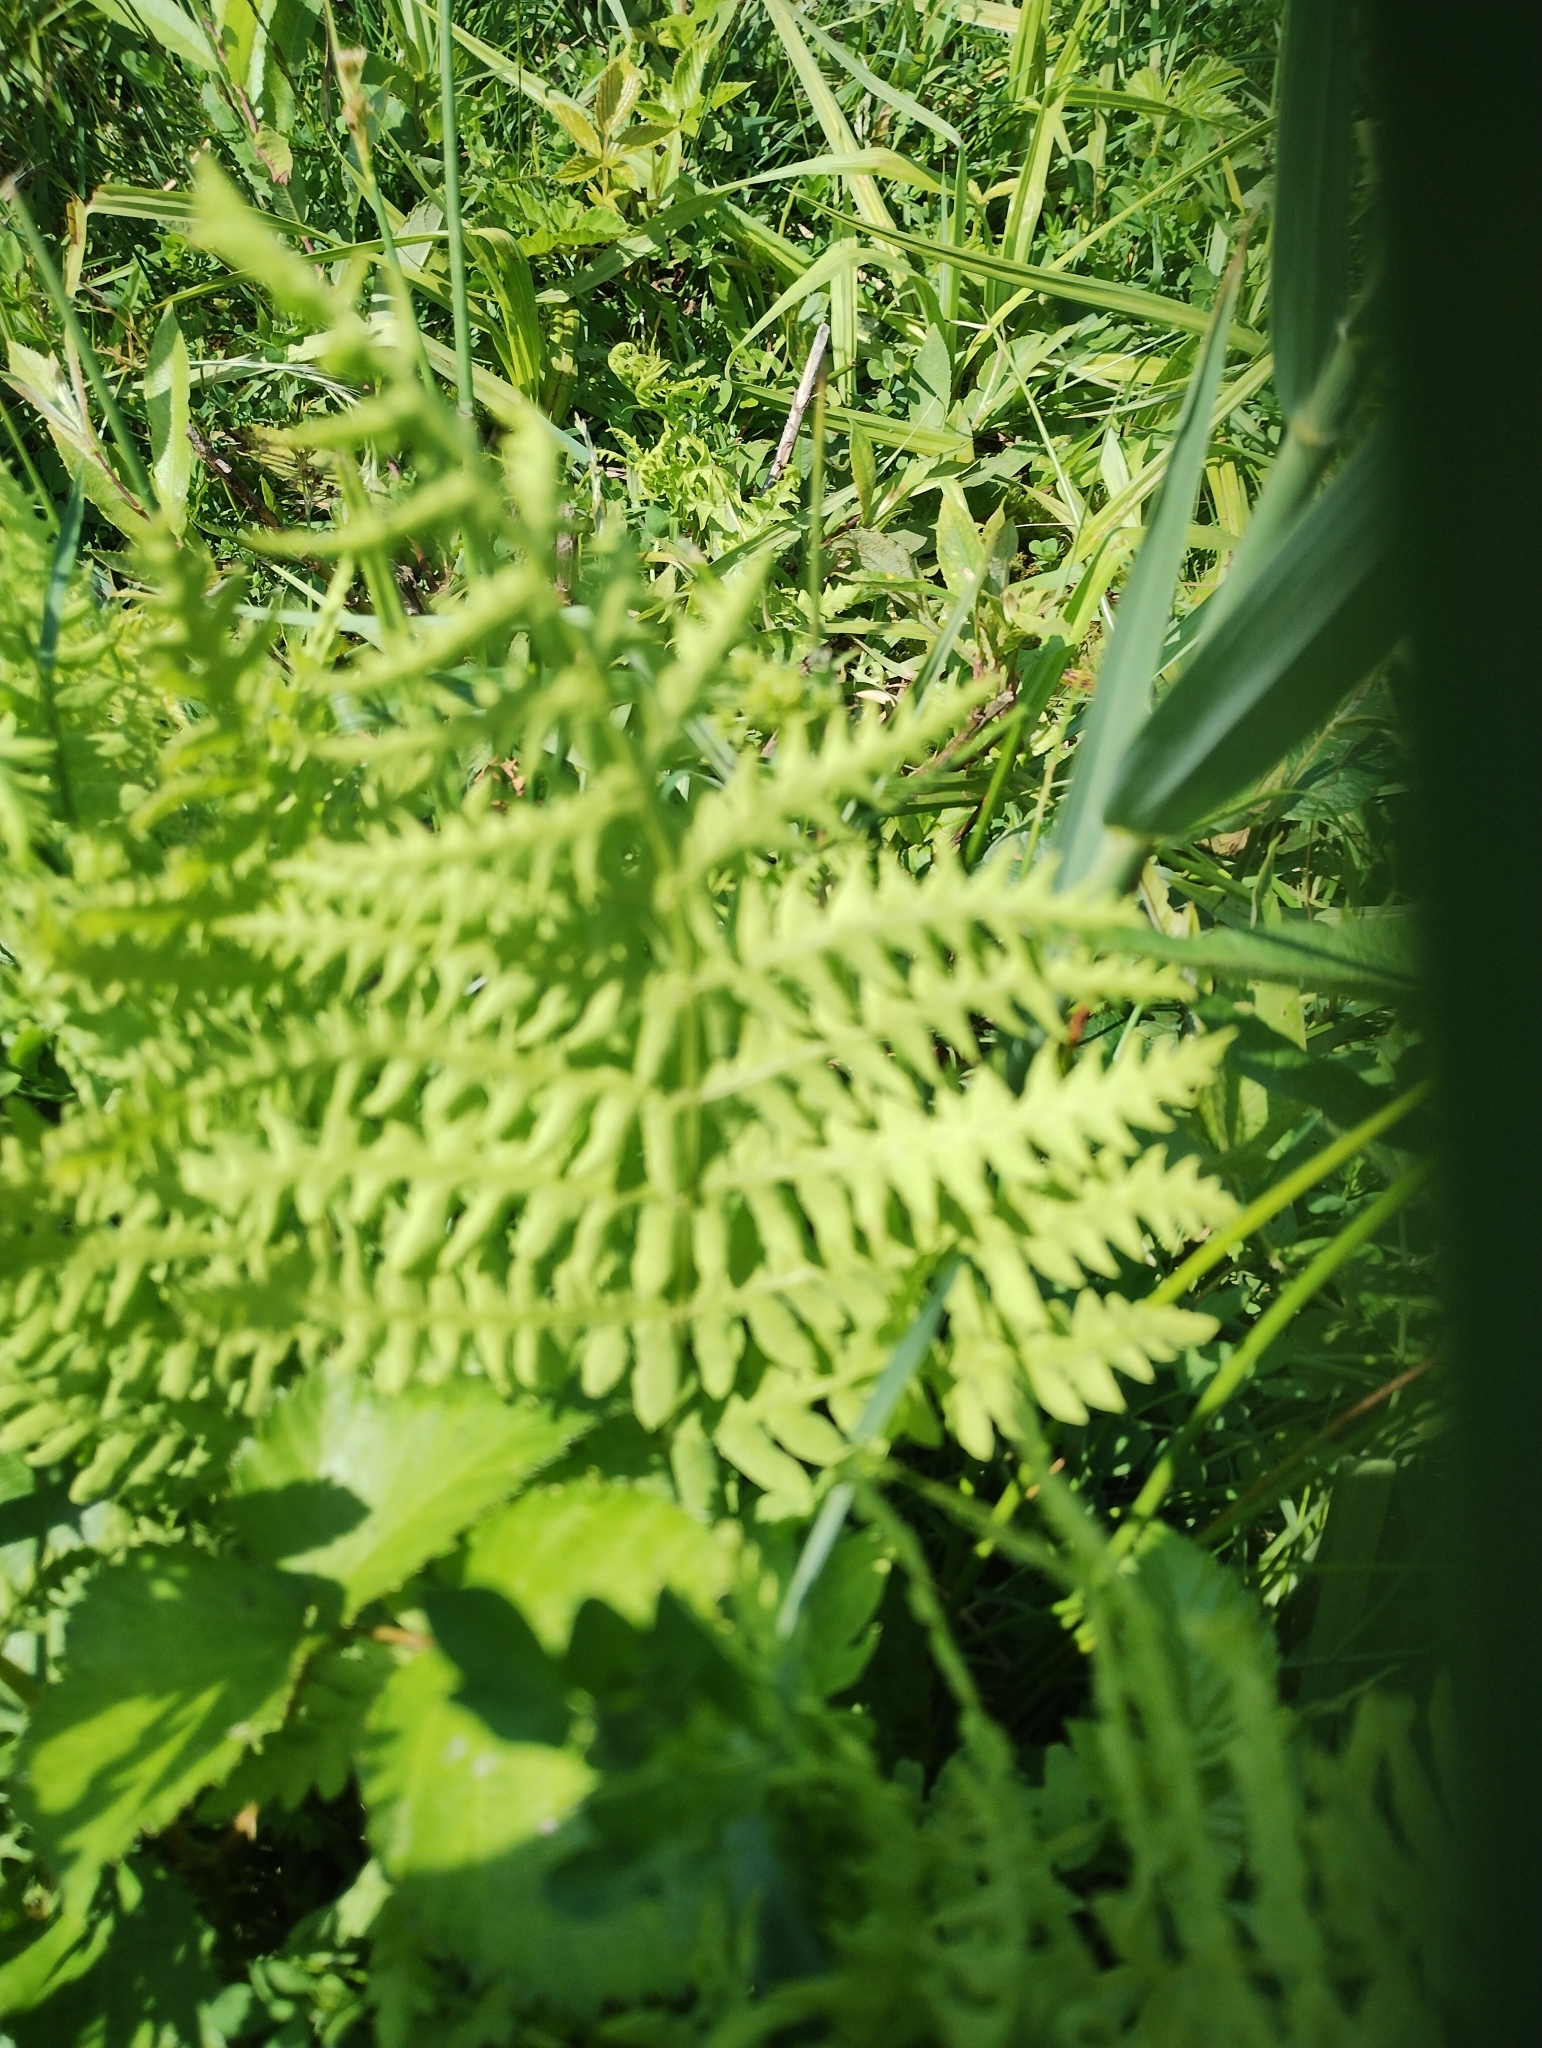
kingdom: Plantae
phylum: Tracheophyta
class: Polypodiopsida
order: Polypodiales
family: Thelypteridaceae
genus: Thelypteris
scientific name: Thelypteris palustris
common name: Marsh fern
